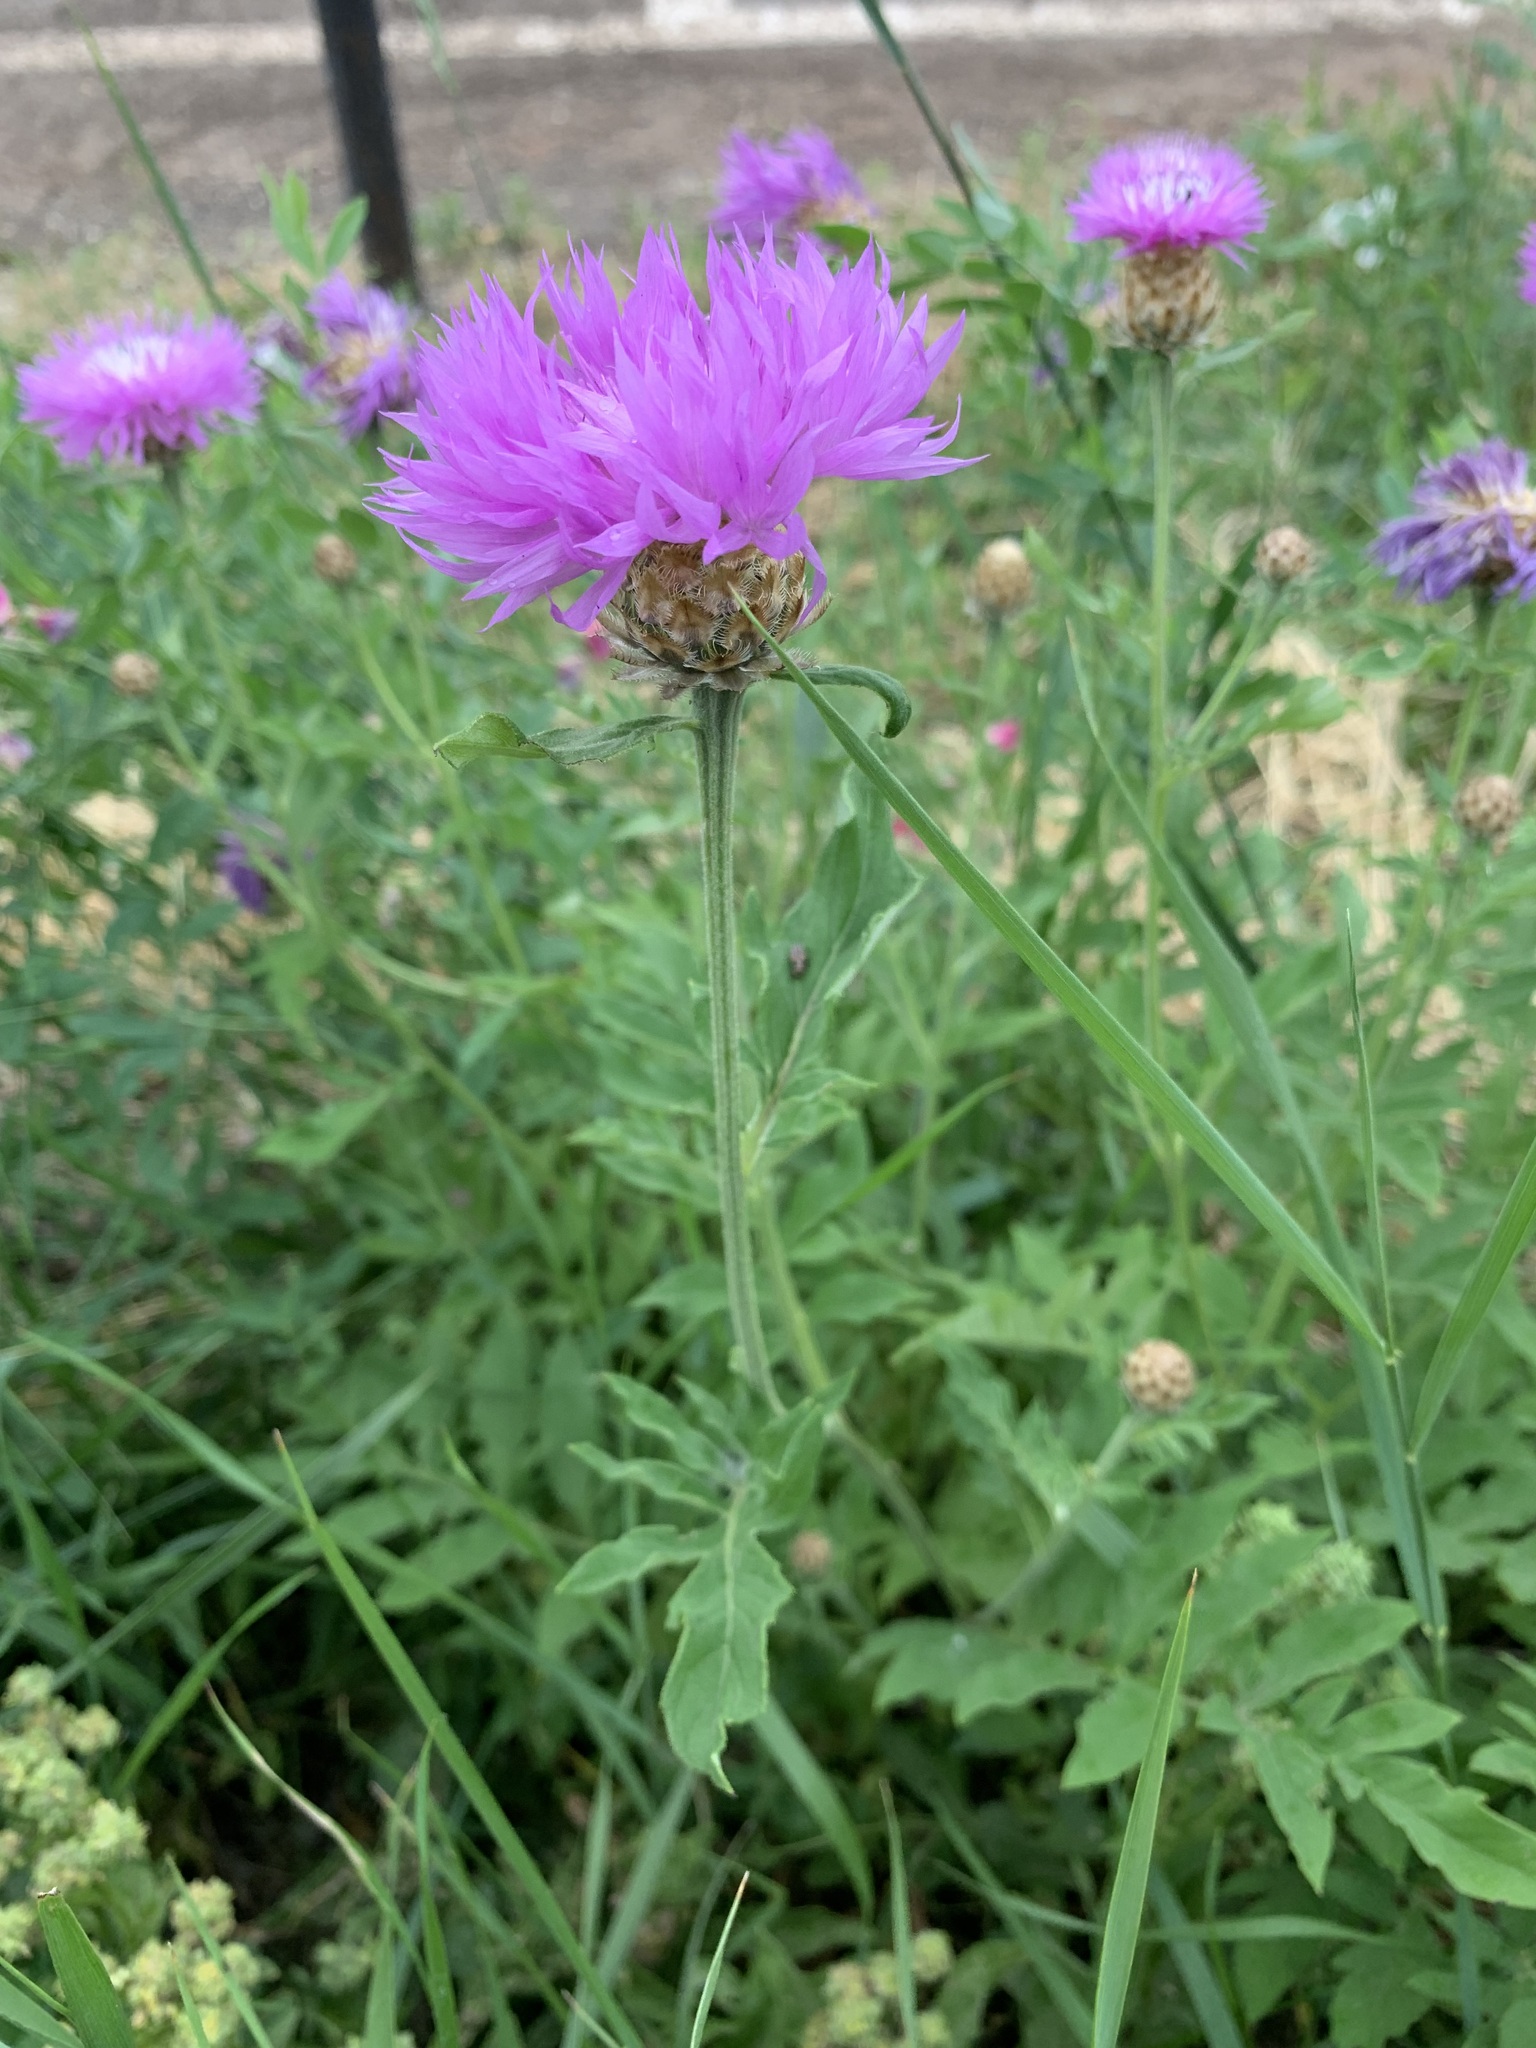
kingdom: Plantae
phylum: Tracheophyta
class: Magnoliopsida
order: Asterales
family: Asteraceae
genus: Psephellus
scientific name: Psephellus dealbatus
